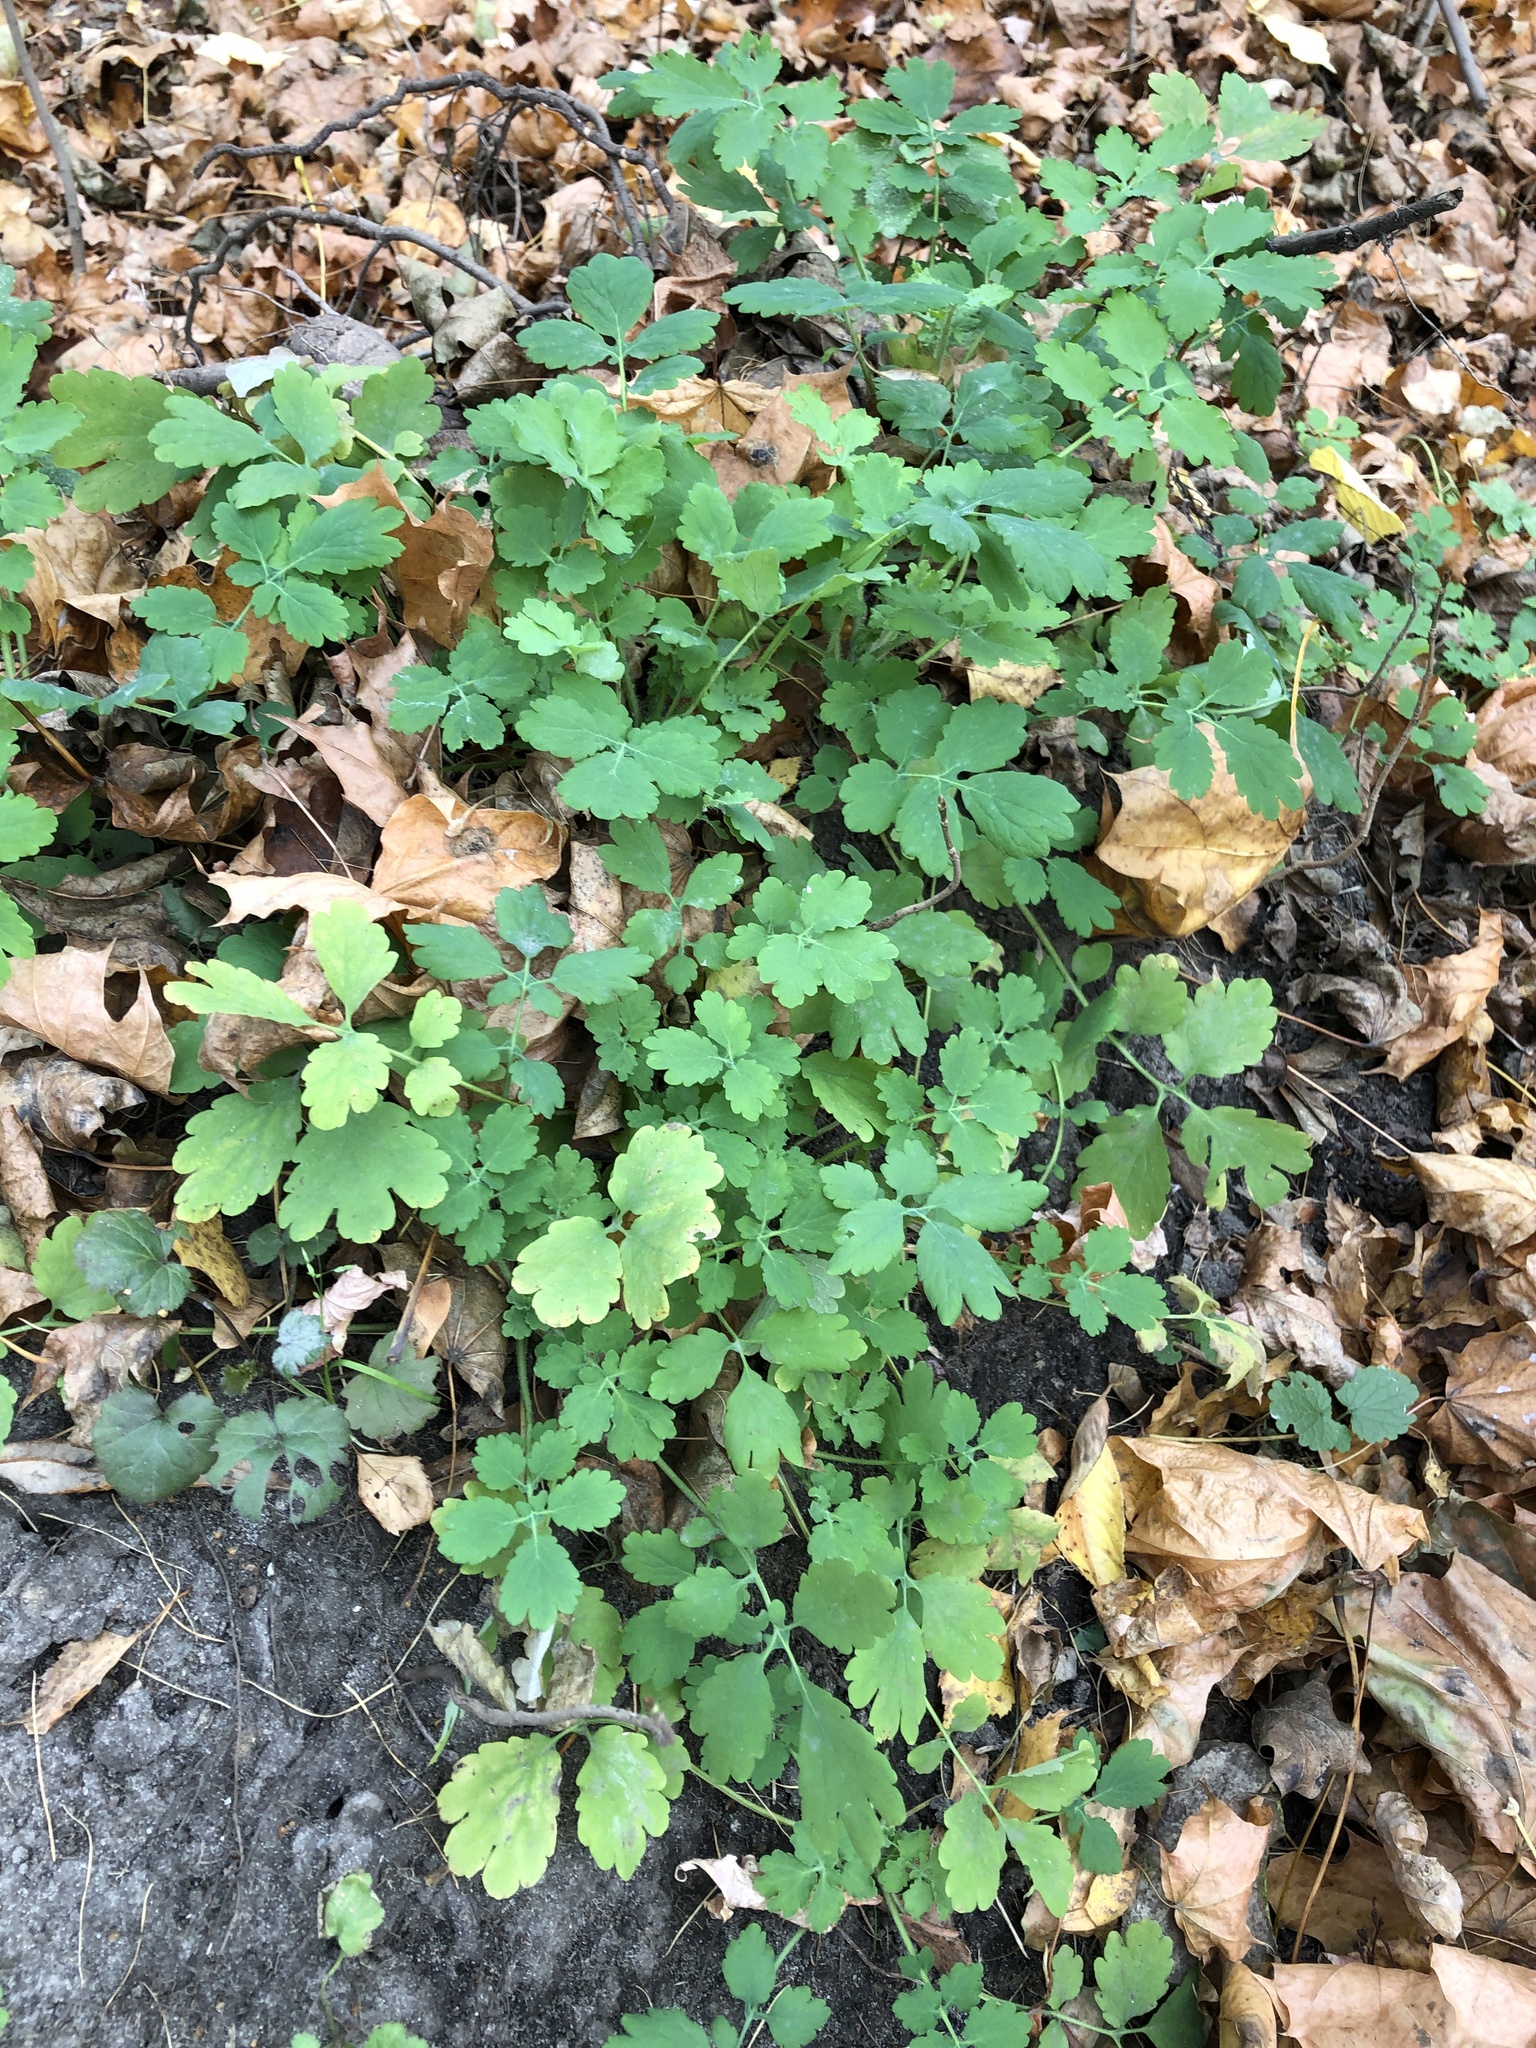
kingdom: Plantae
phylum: Tracheophyta
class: Magnoliopsida
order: Ranunculales
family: Papaveraceae
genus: Chelidonium
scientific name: Chelidonium majus
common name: Greater celandine
